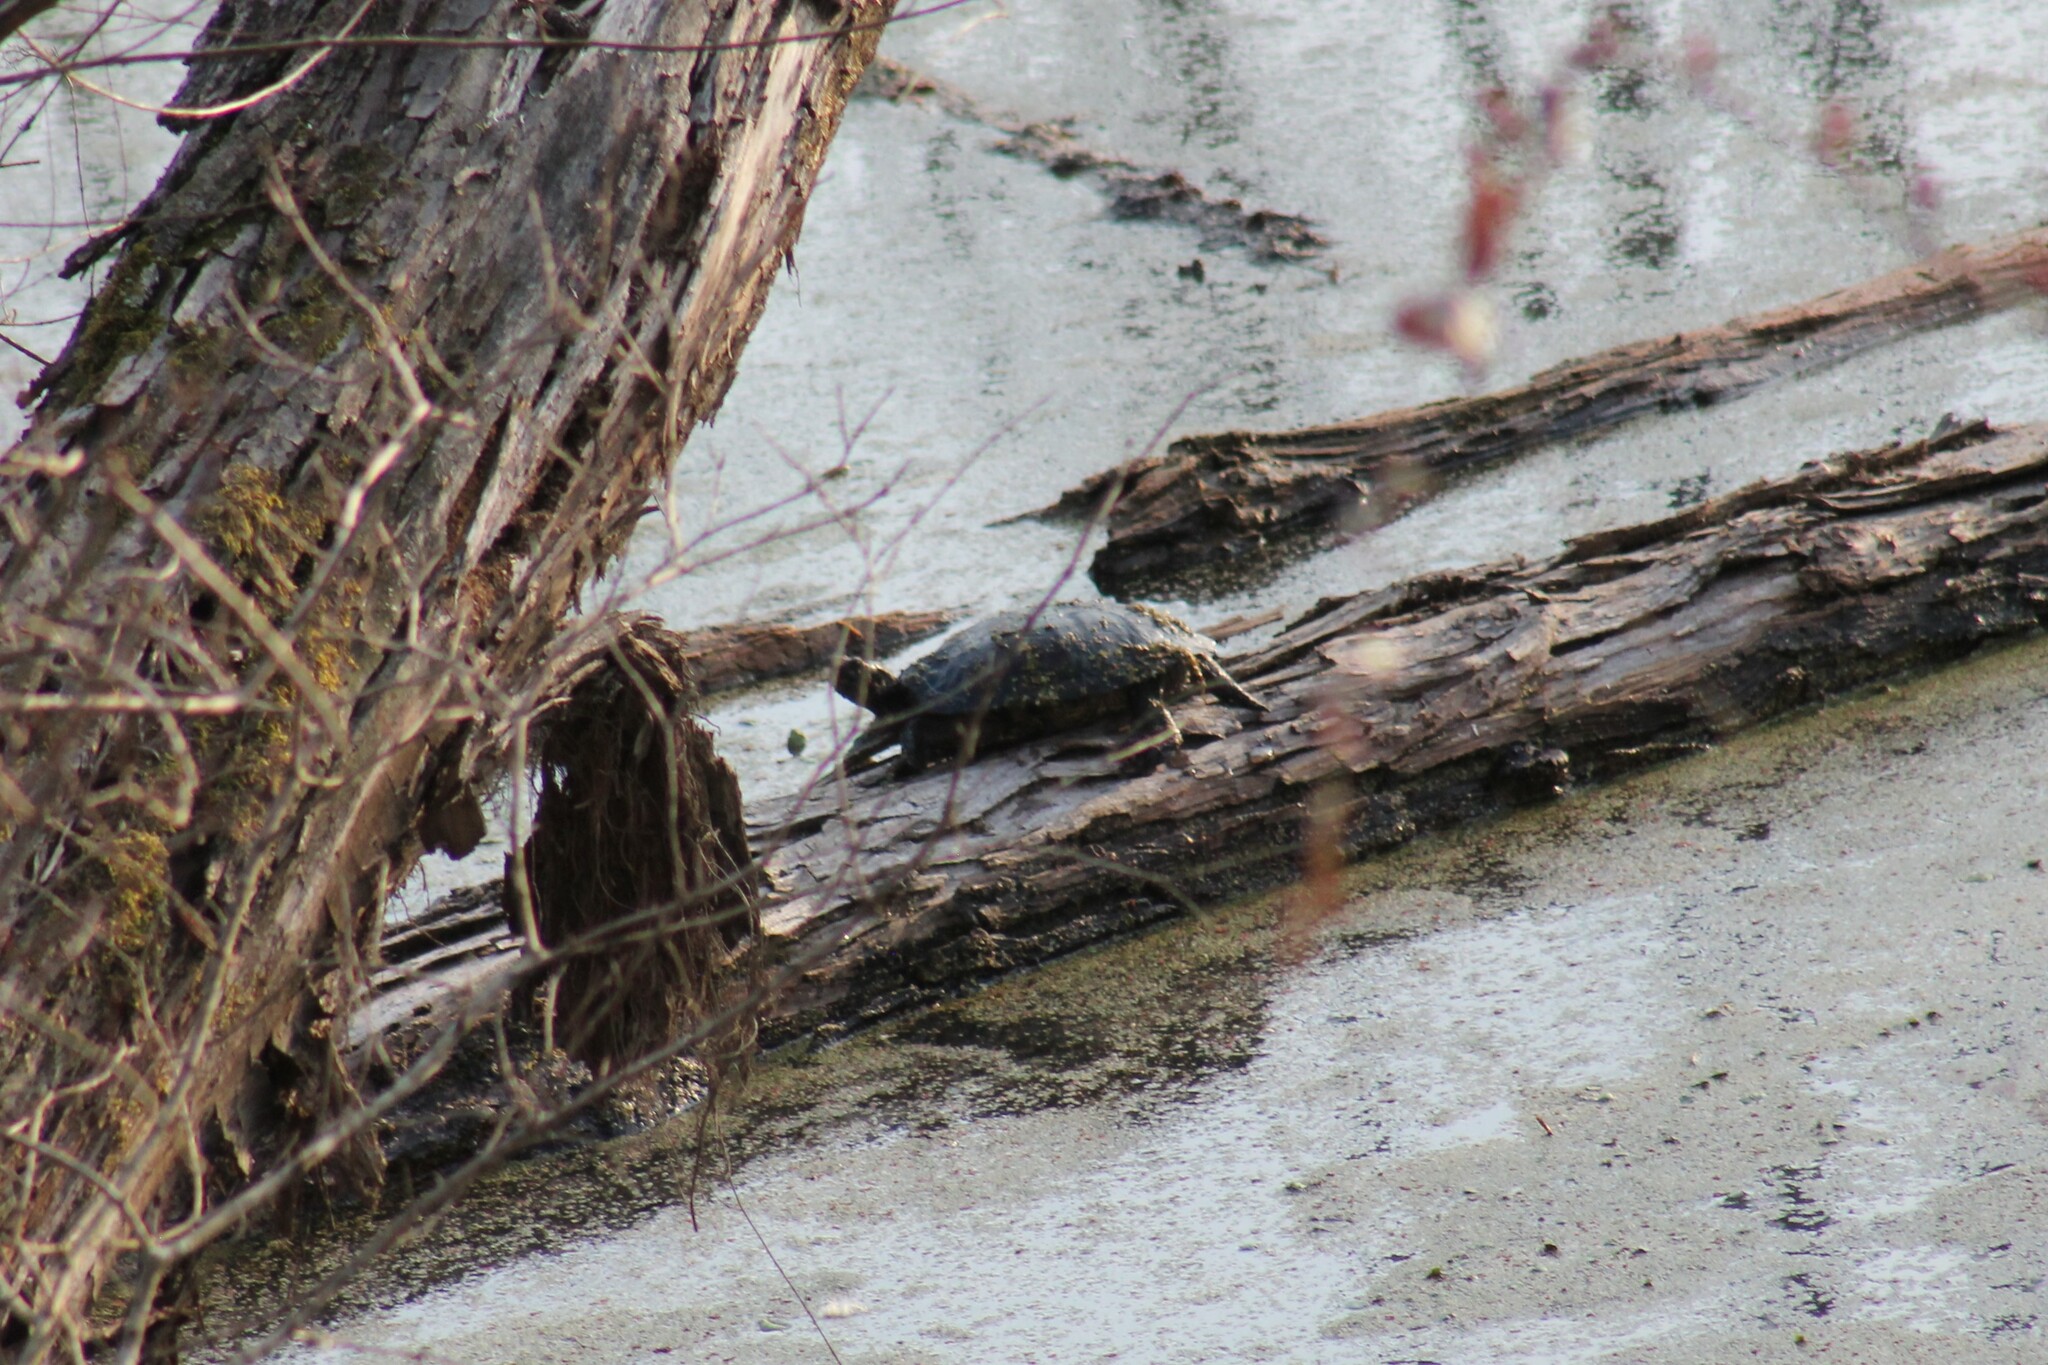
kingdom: Animalia
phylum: Chordata
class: Testudines
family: Emydidae
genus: Trachemys
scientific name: Trachemys scripta
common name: Slider
